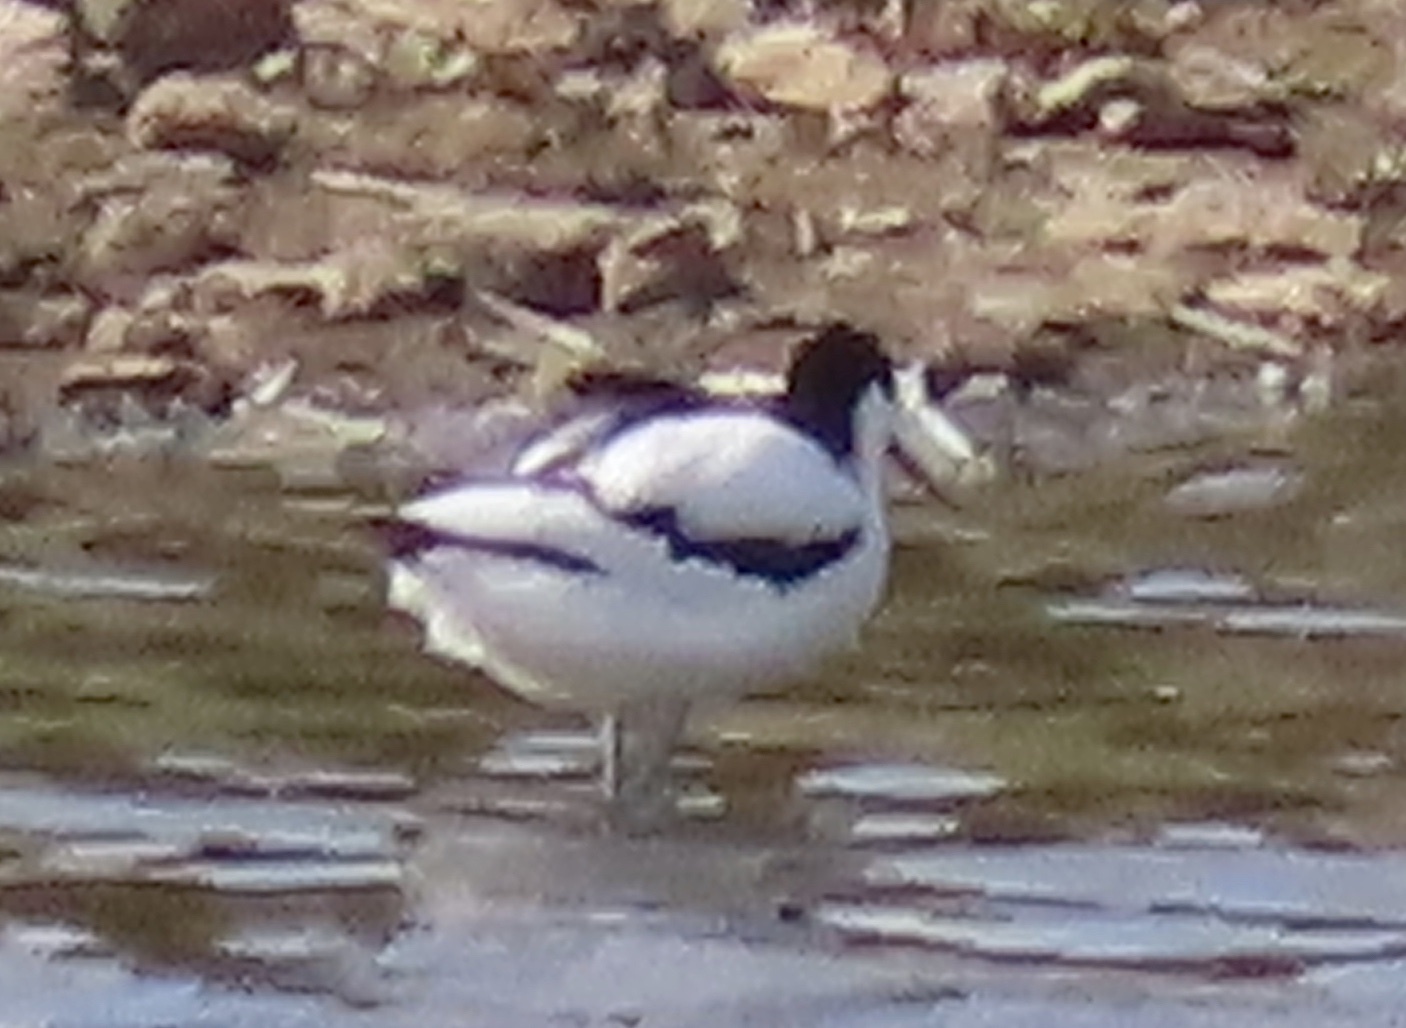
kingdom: Animalia
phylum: Chordata
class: Aves
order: Charadriiformes
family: Recurvirostridae
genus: Recurvirostra
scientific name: Recurvirostra avosetta
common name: Pied avocet
